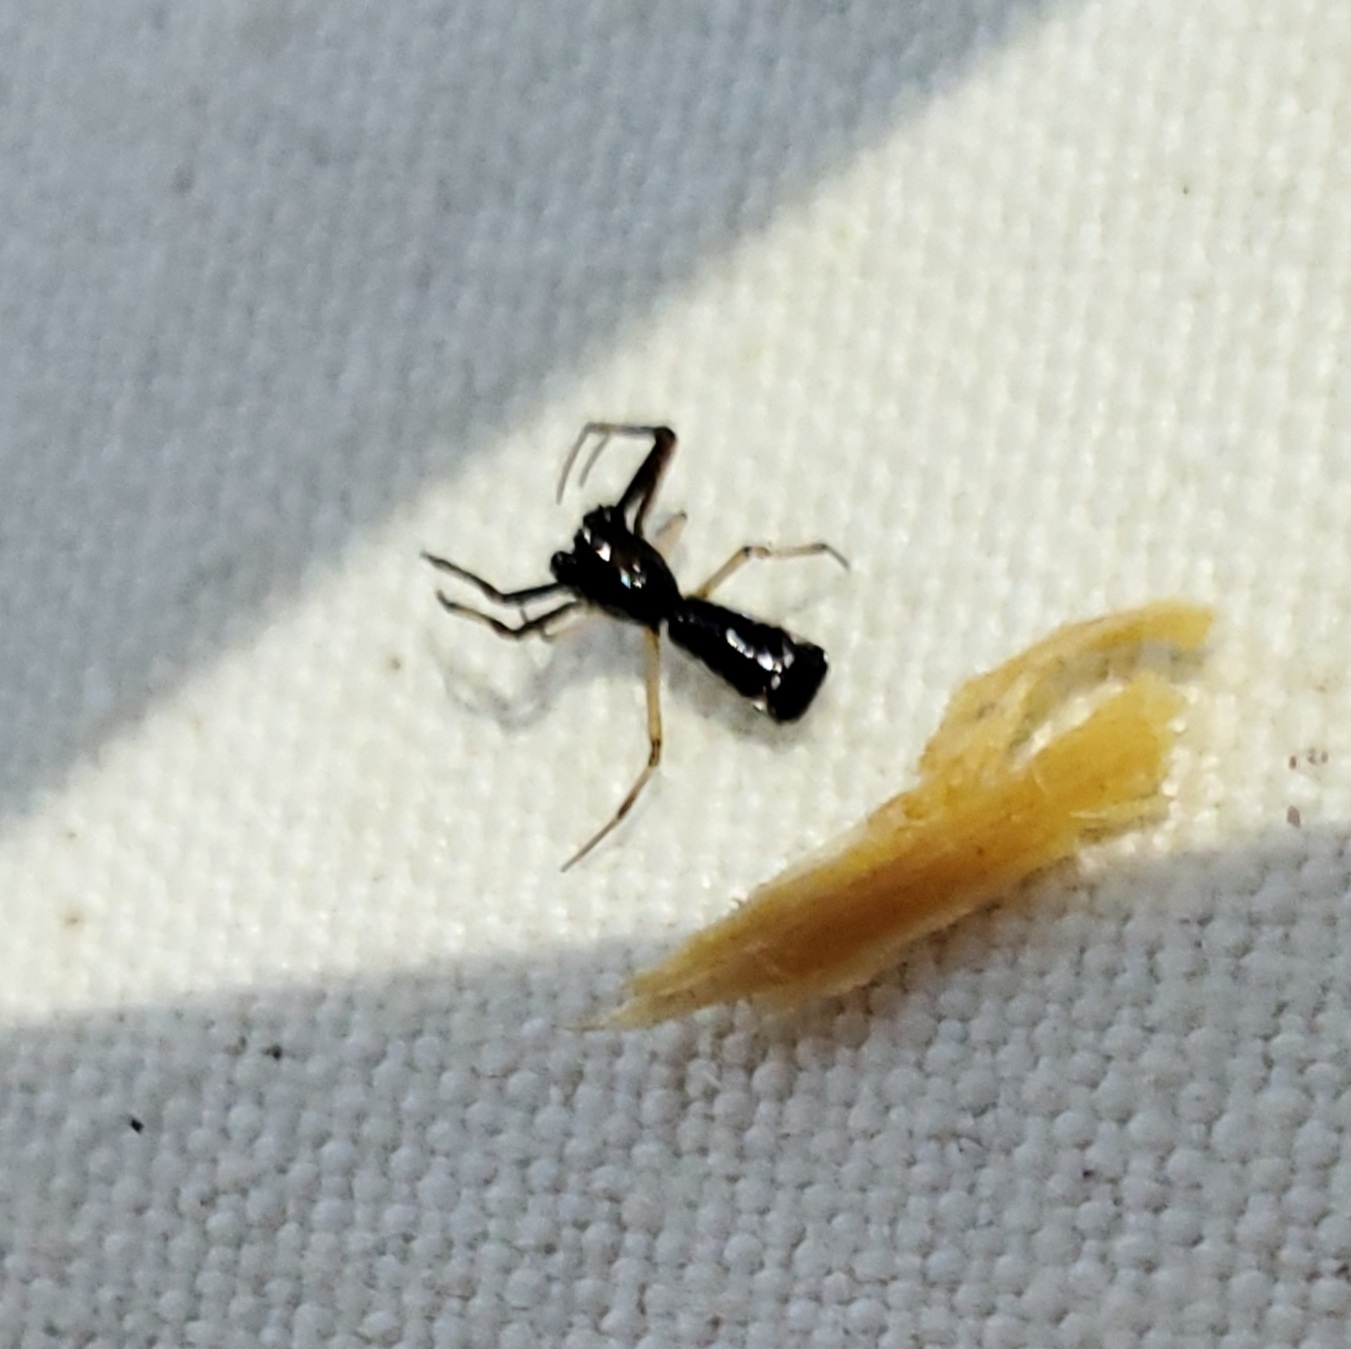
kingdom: Animalia
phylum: Arthropoda
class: Arachnida
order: Araneae
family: Araneidae
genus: Micrathena
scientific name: Micrathena sagittata
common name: Orb weavers
